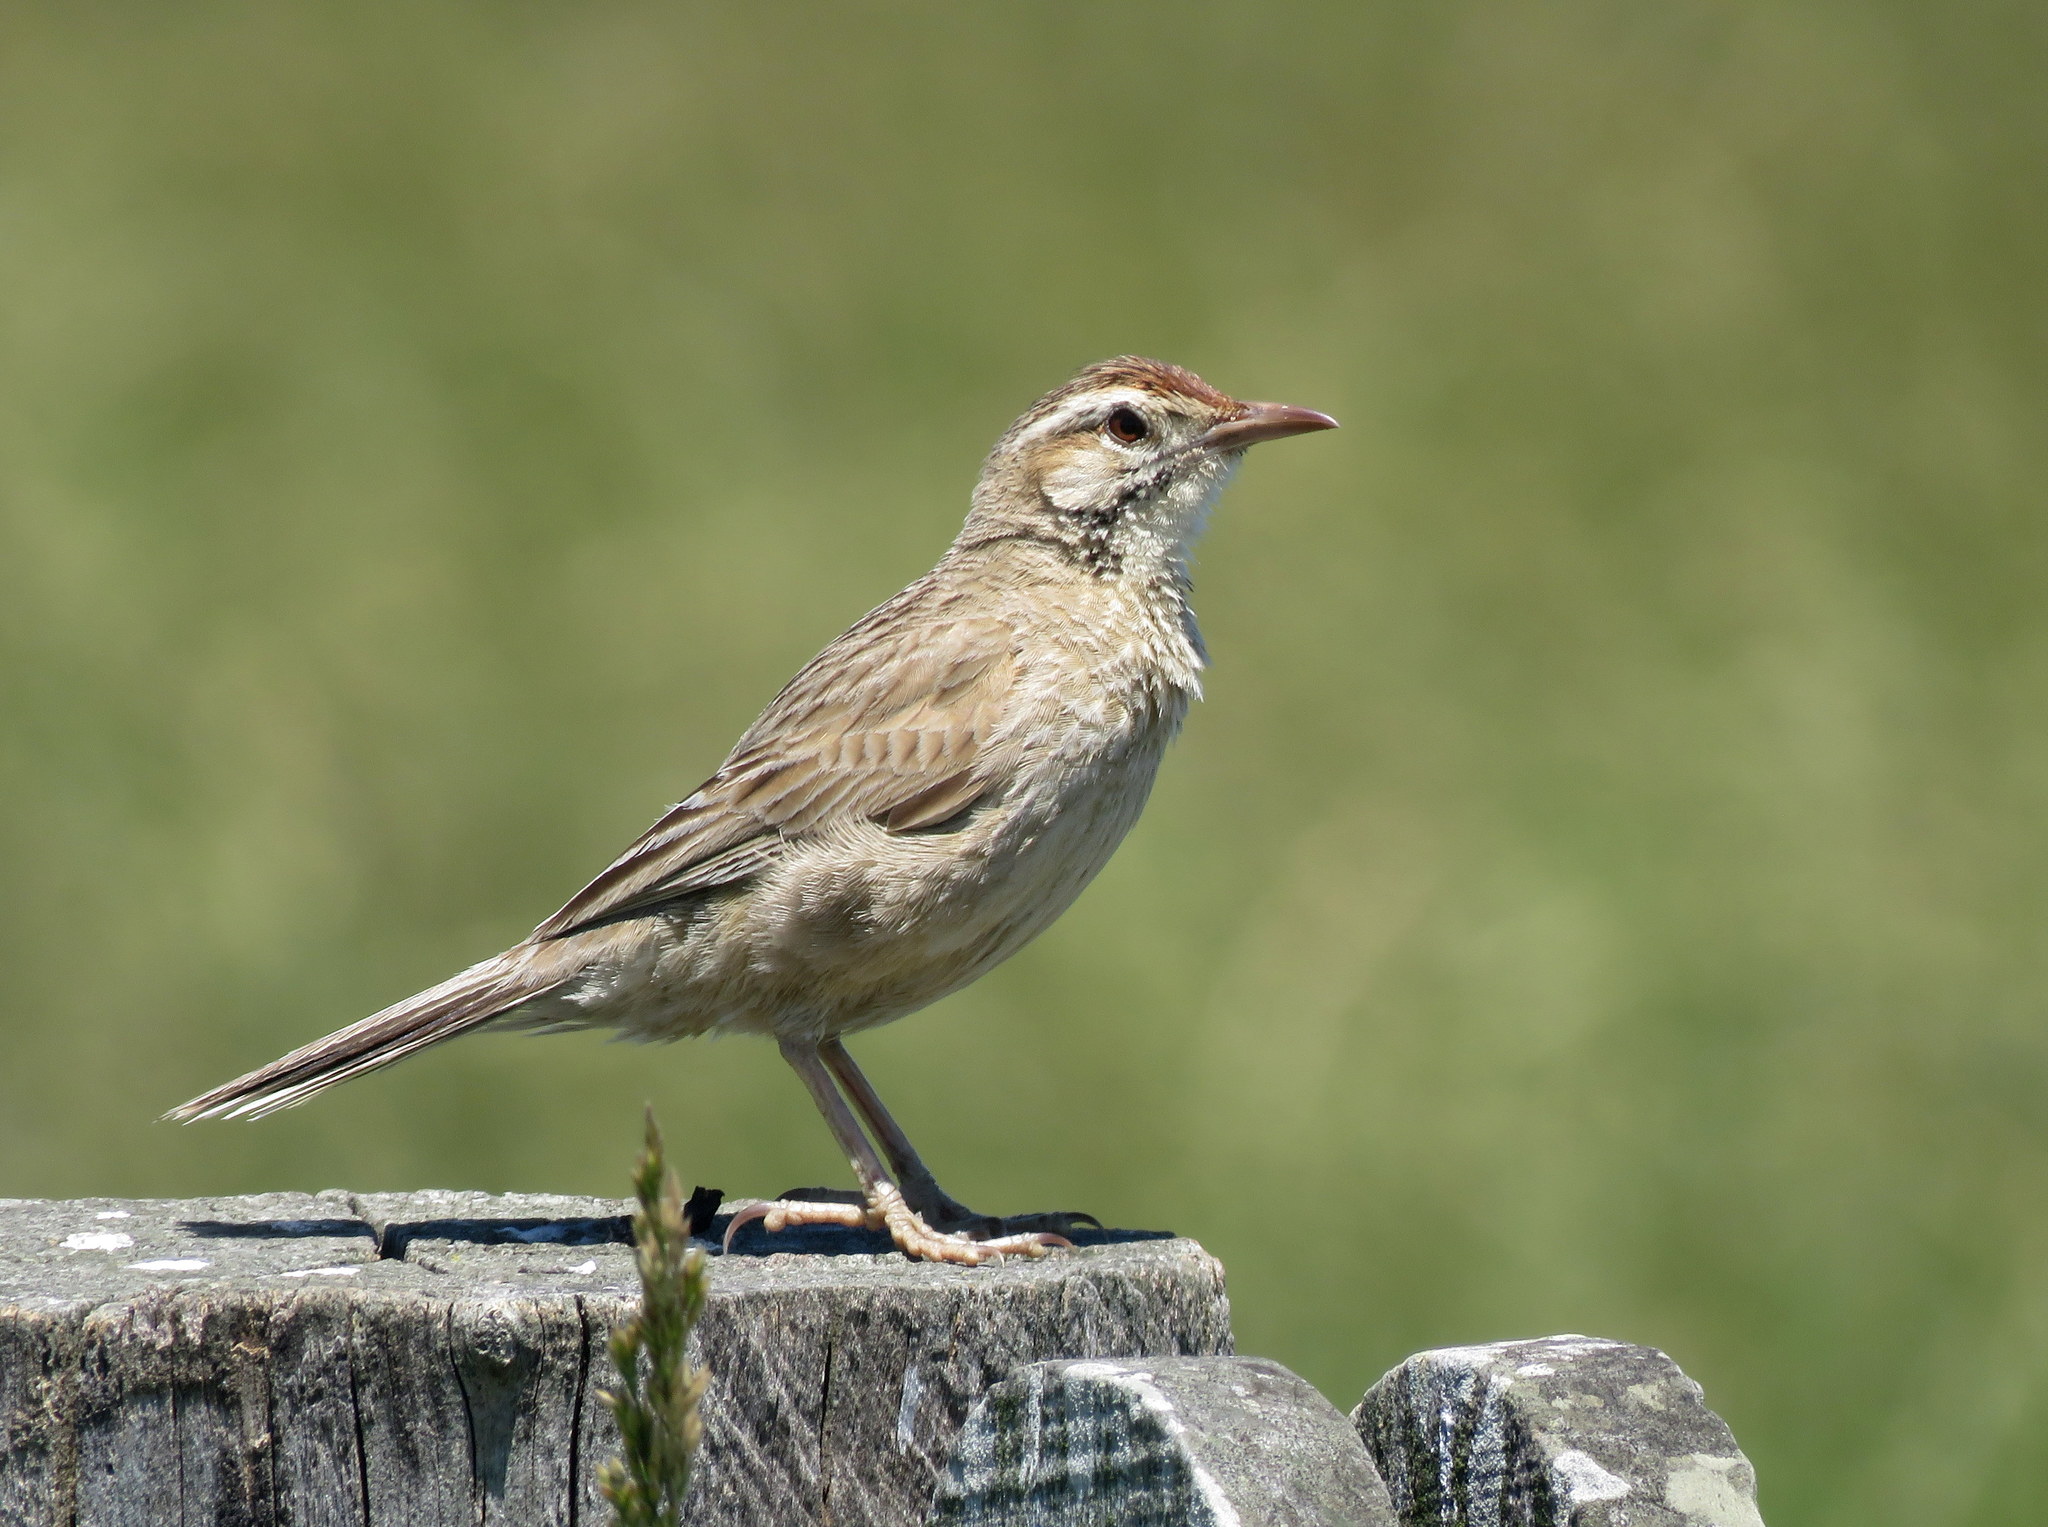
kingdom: Animalia
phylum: Chordata
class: Aves
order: Passeriformes
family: Furnariidae
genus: Anumbius
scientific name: Anumbius annumbi
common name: Firewood-gatherer
